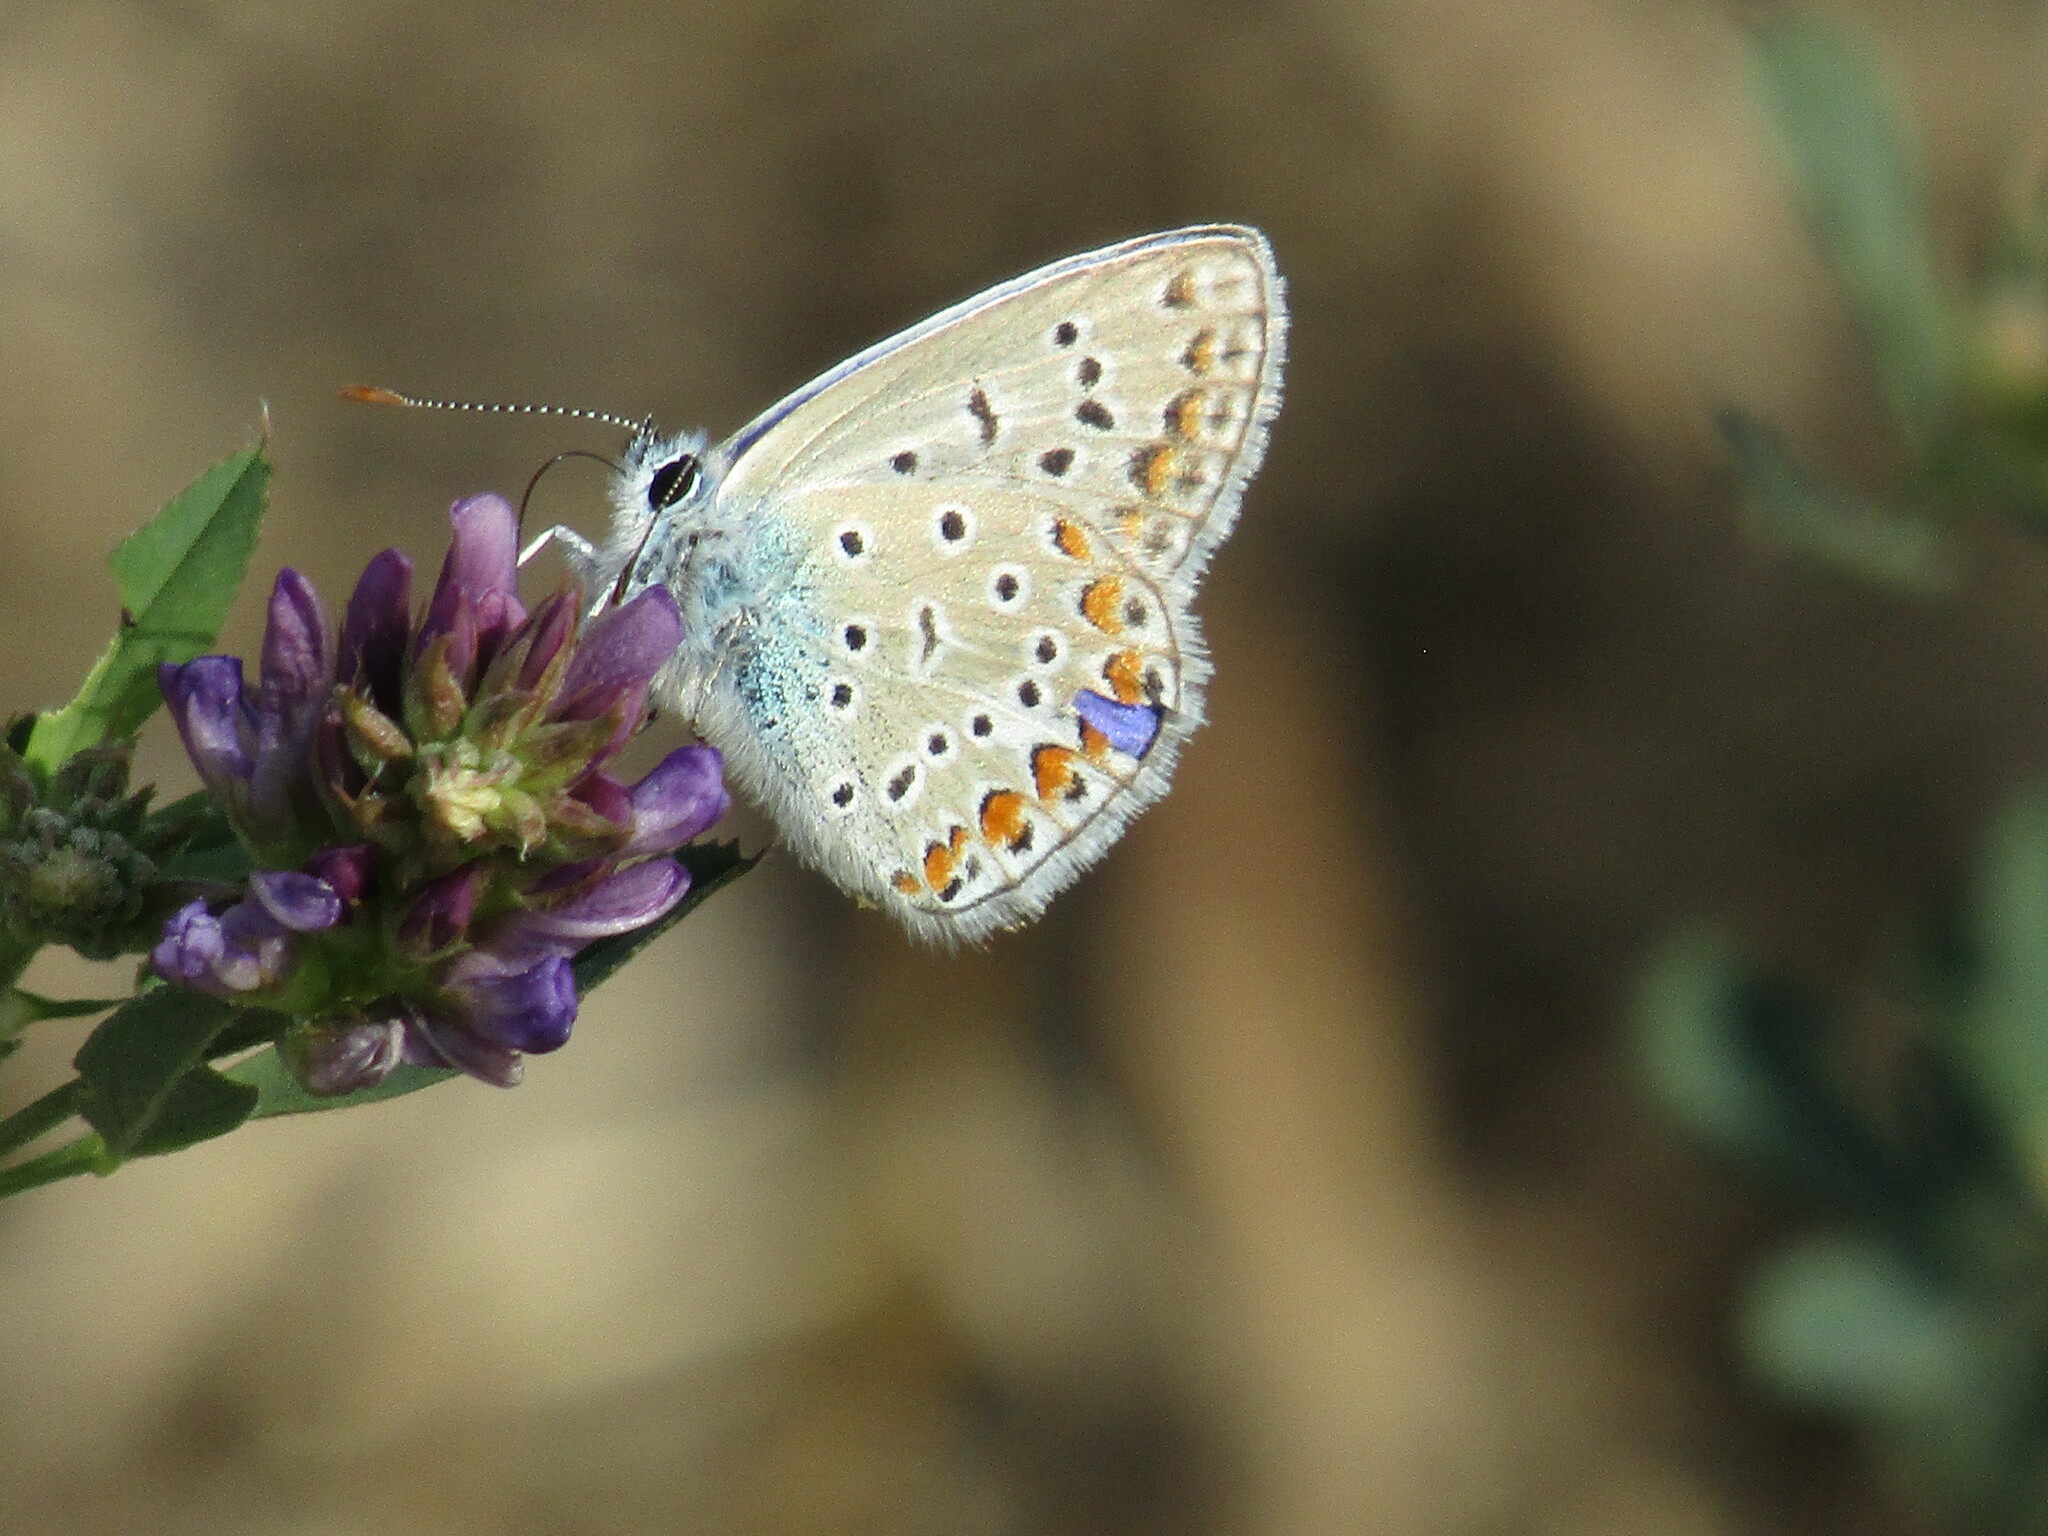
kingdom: Animalia
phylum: Arthropoda
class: Insecta
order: Lepidoptera
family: Lycaenidae
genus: Polyommatus
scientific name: Polyommatus icarus
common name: Common blue
